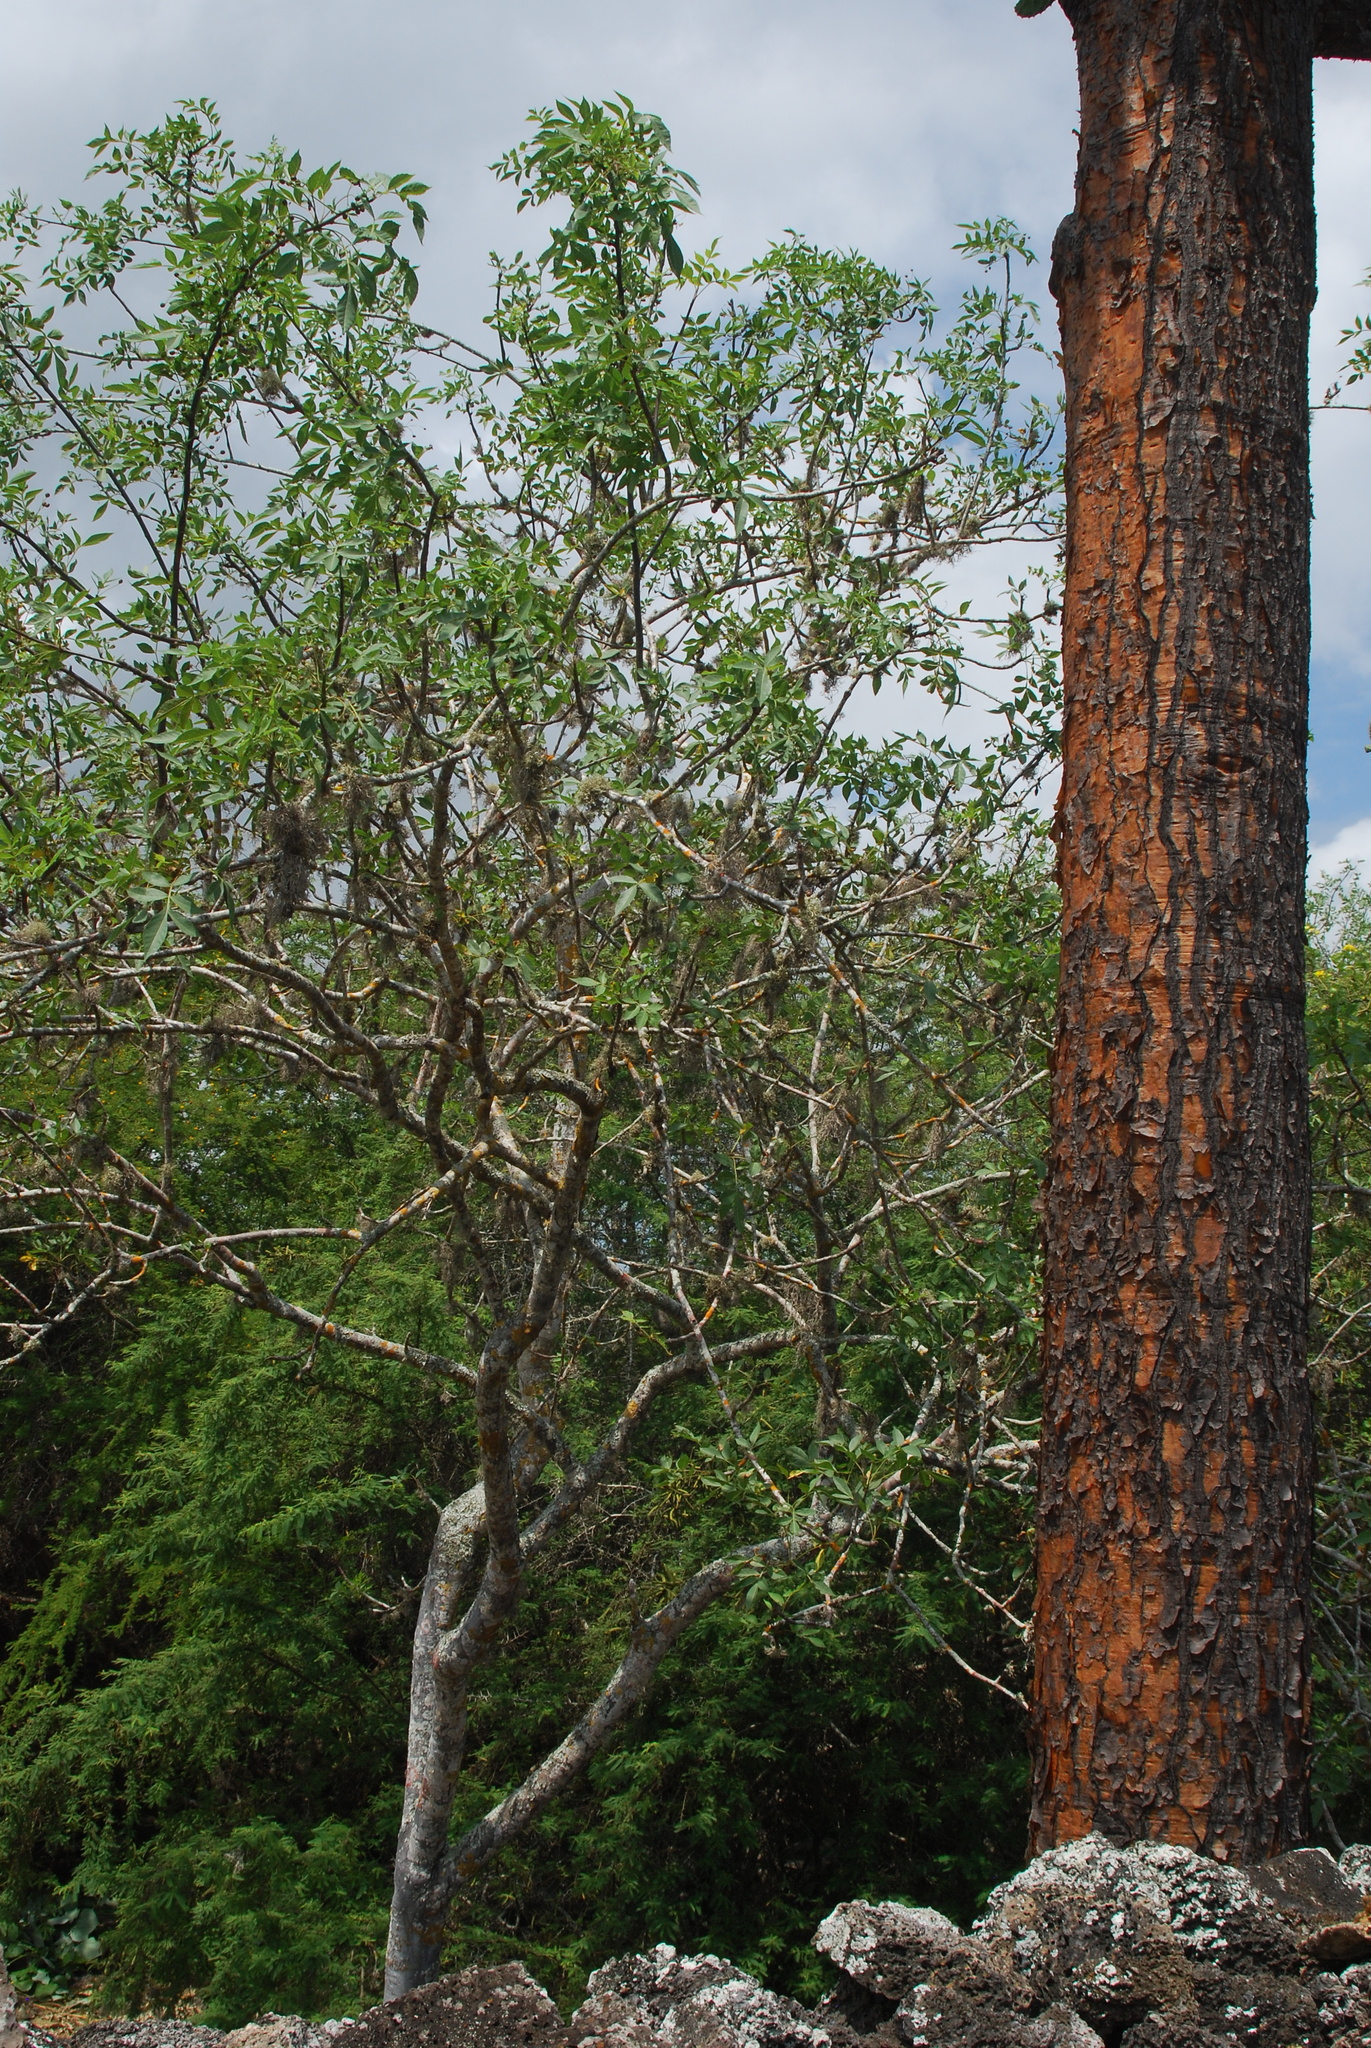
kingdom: Plantae
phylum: Tracheophyta
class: Magnoliopsida
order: Caryophyllales
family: Cactaceae
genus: Opuntia
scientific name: Opuntia galapageia
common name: Galápagos prickly pear
